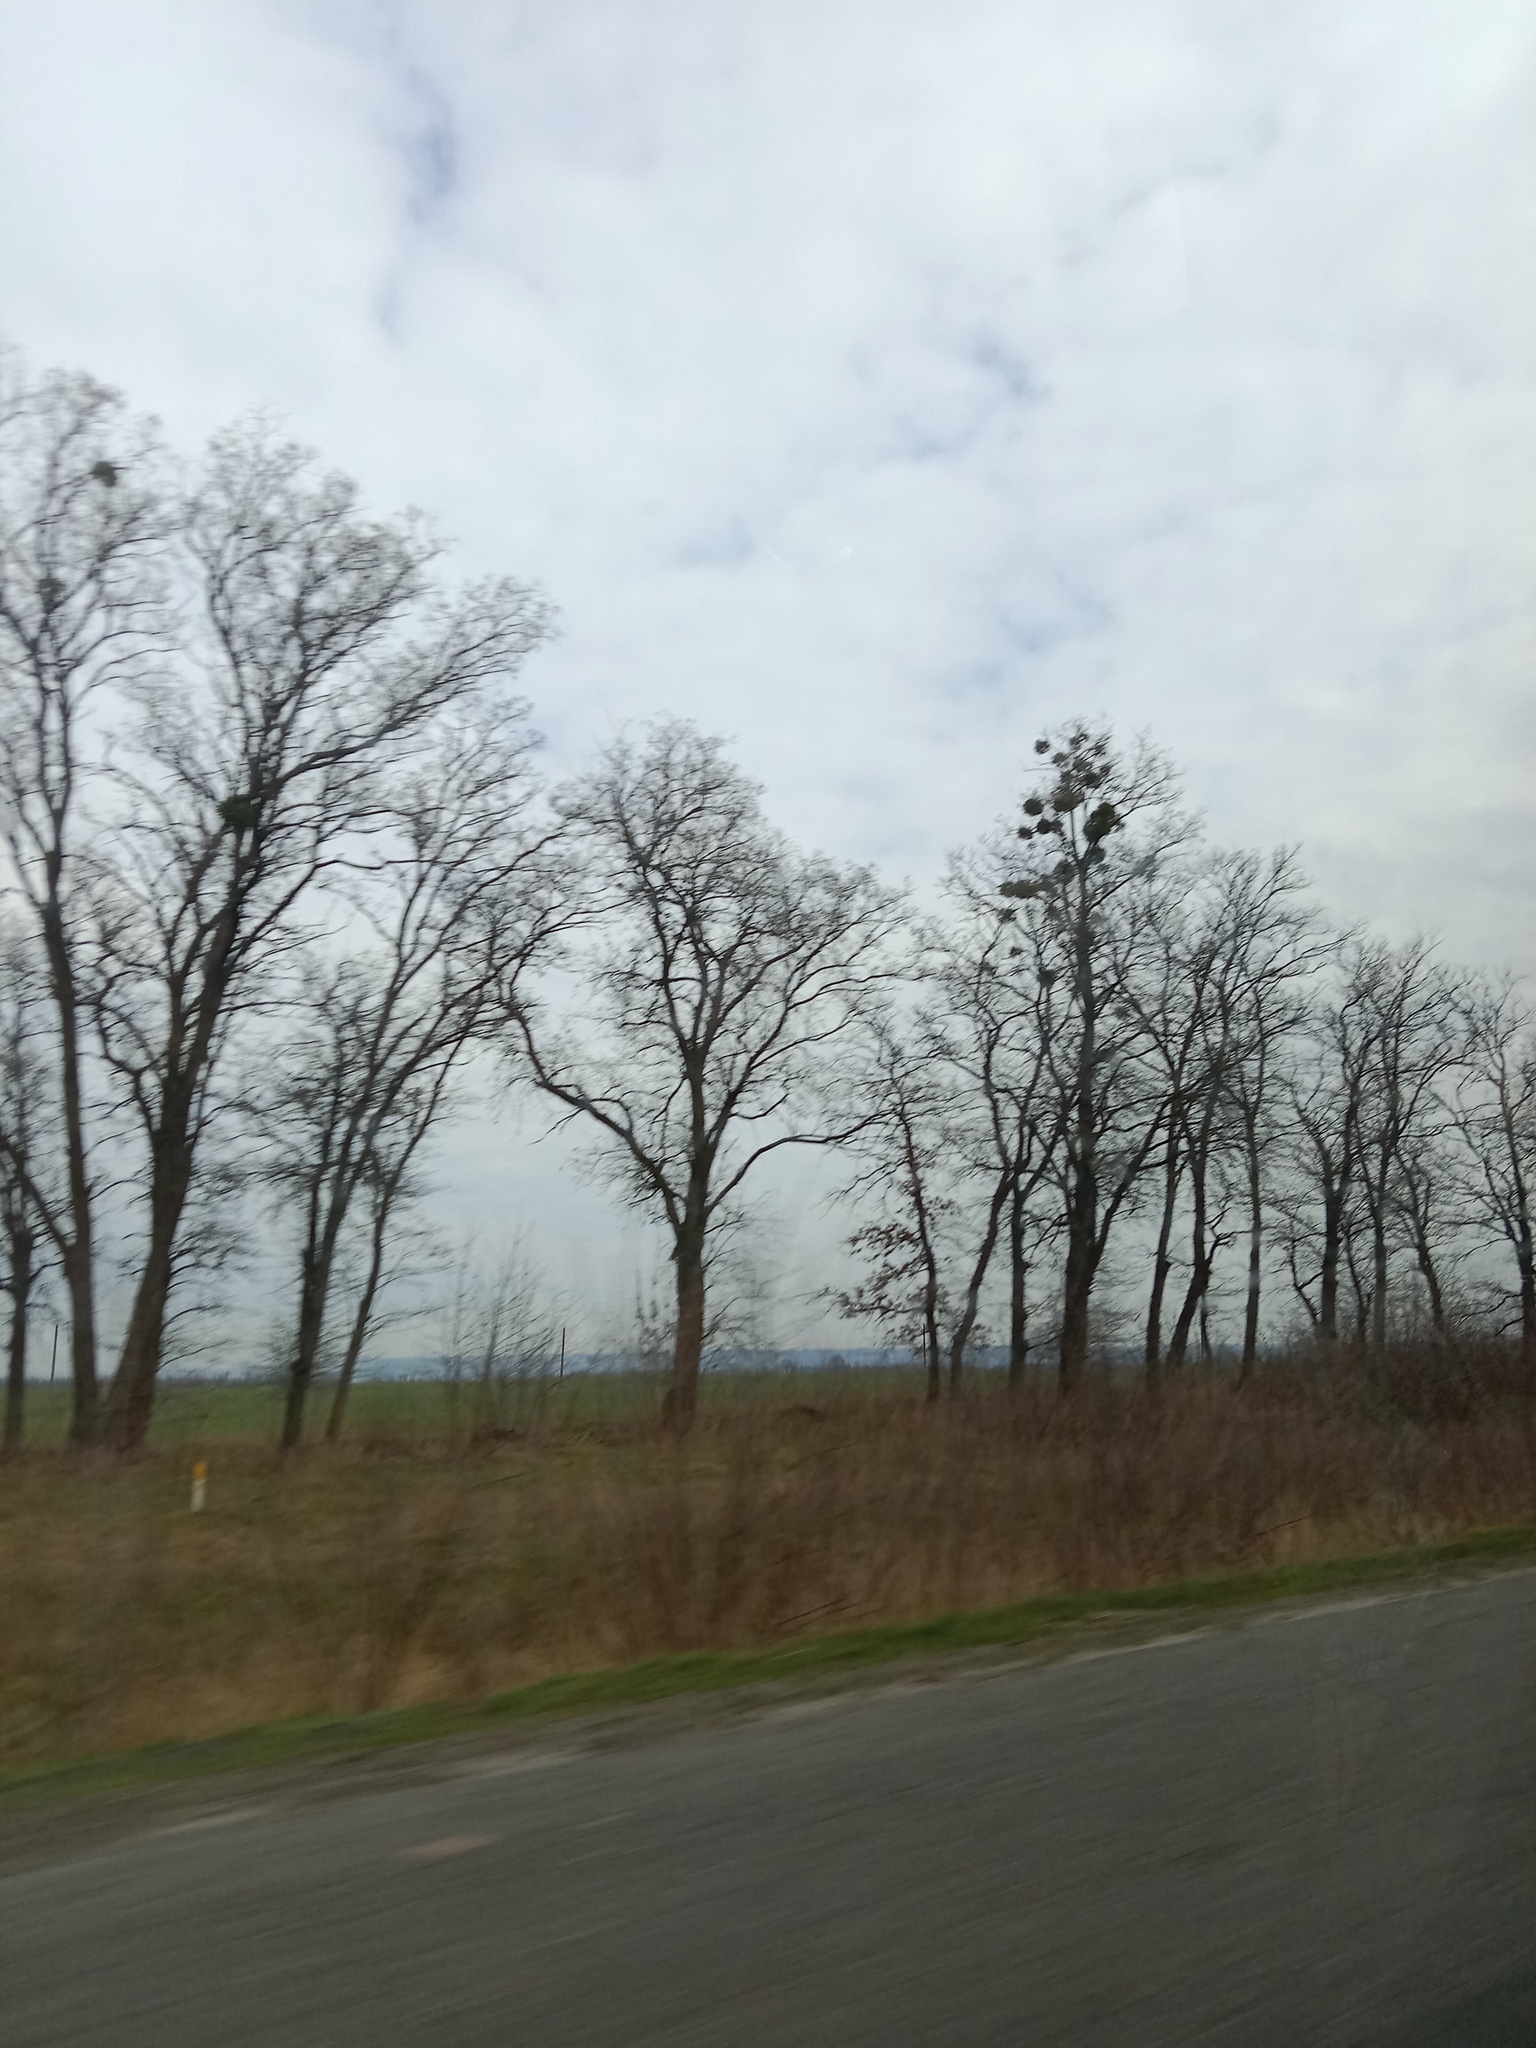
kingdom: Plantae
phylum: Tracheophyta
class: Magnoliopsida
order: Santalales
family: Viscaceae
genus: Viscum
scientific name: Viscum album
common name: Mistletoe
